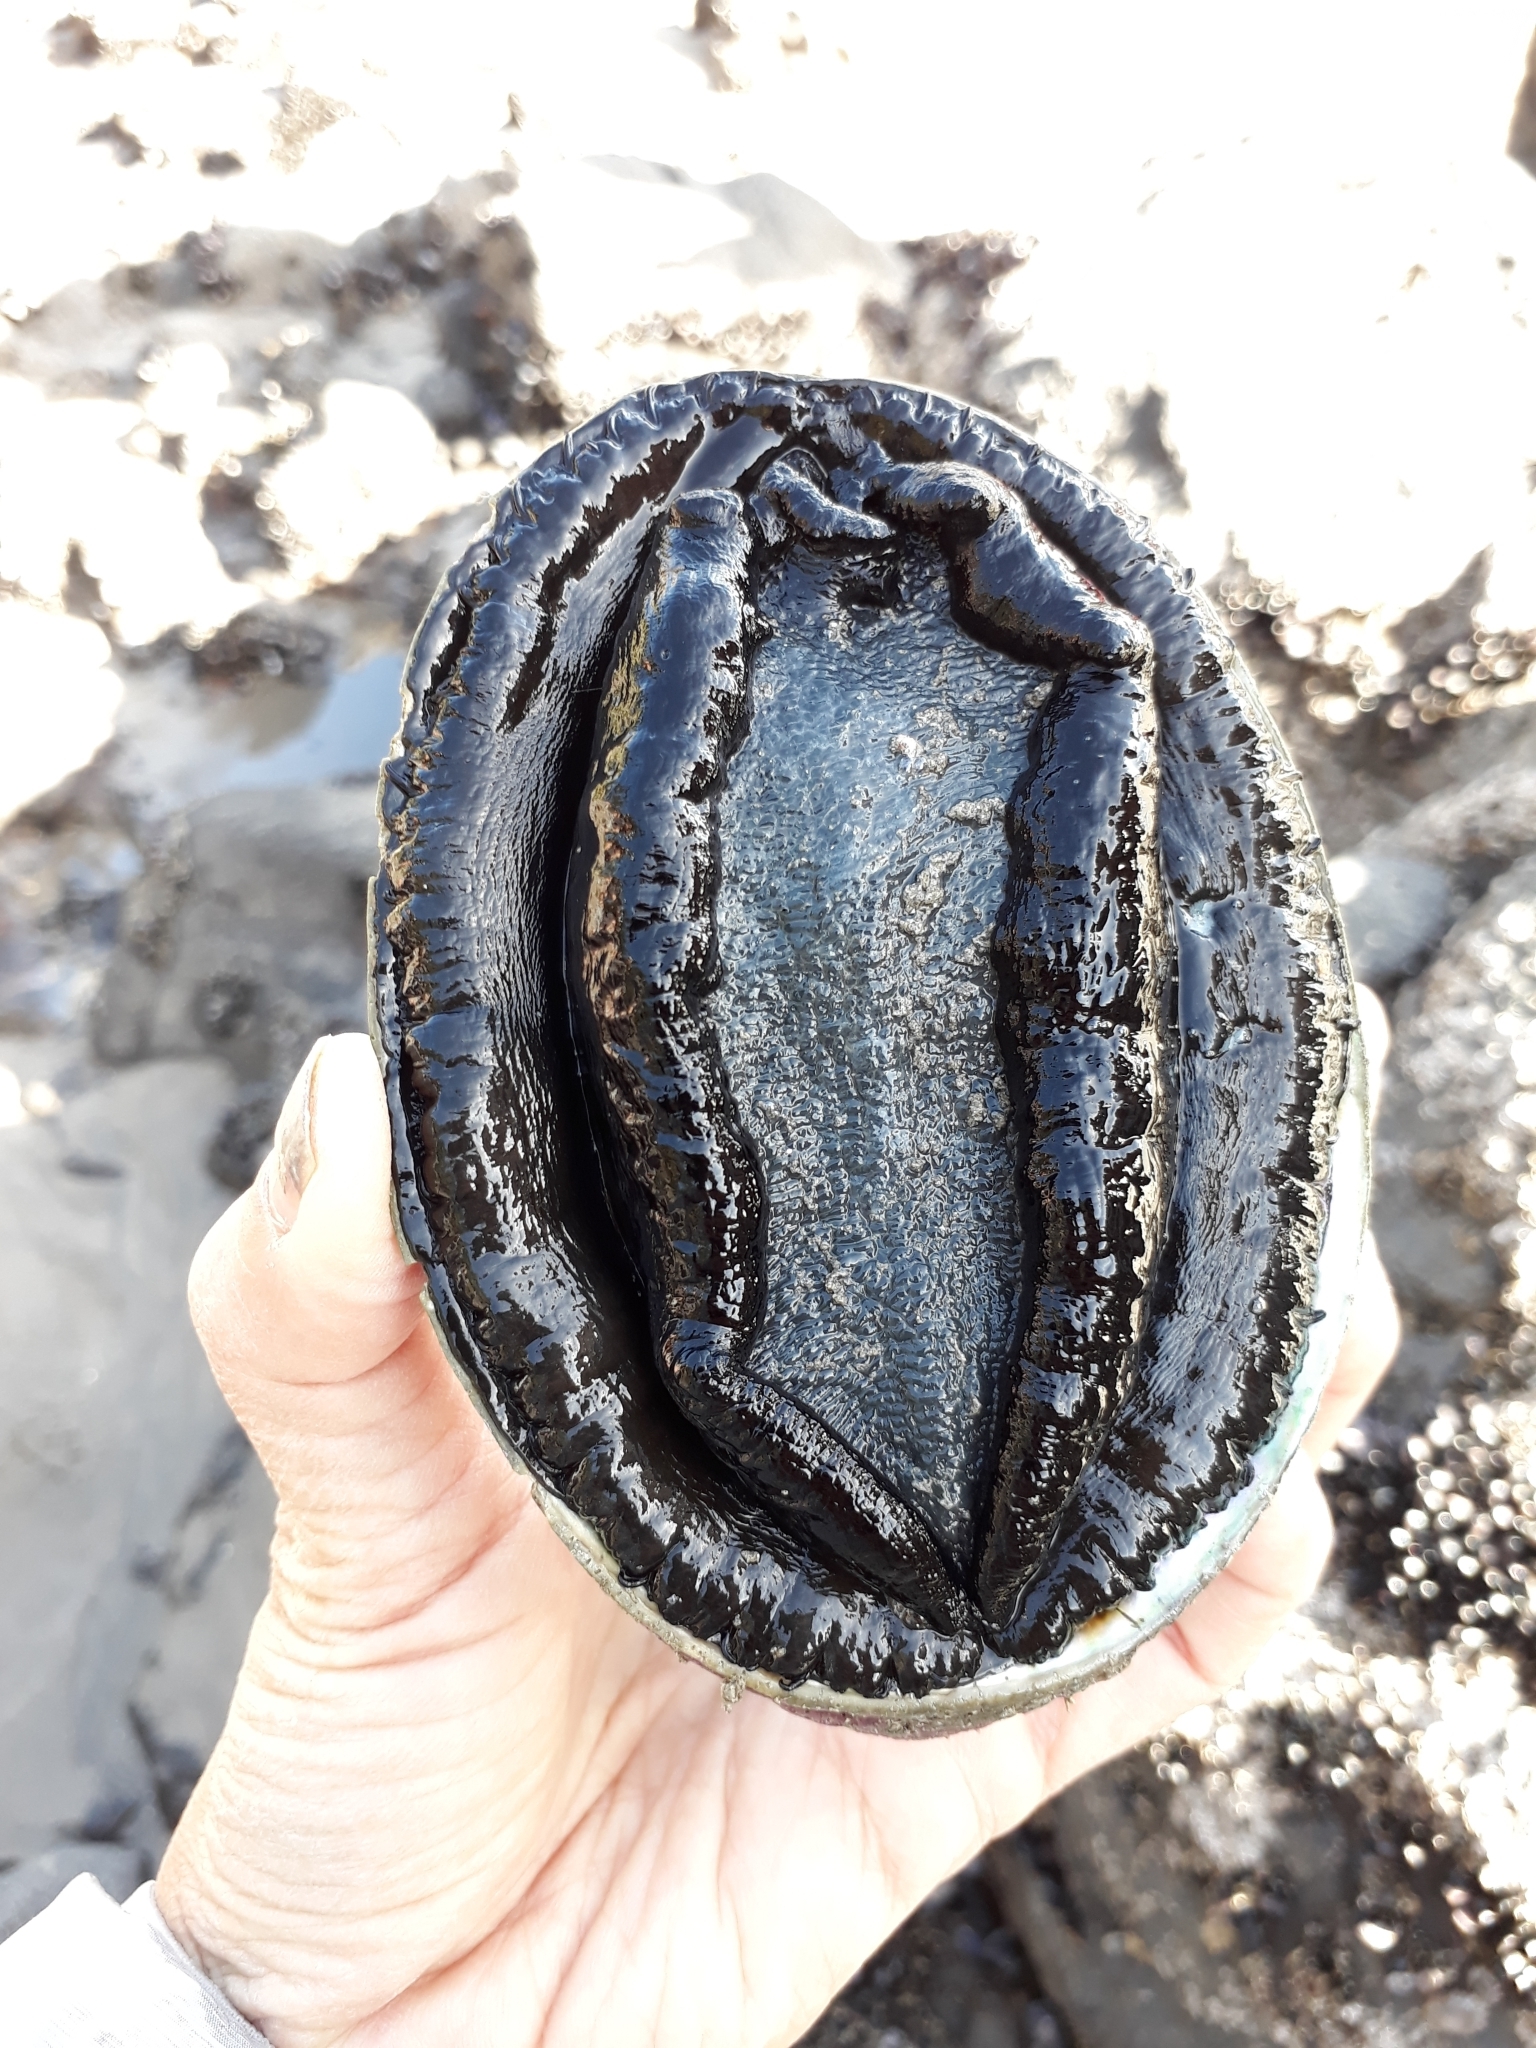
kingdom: Animalia
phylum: Mollusca
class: Gastropoda
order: Lepetellida
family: Haliotidae
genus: Haliotis
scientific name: Haliotis iris
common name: Abalone
